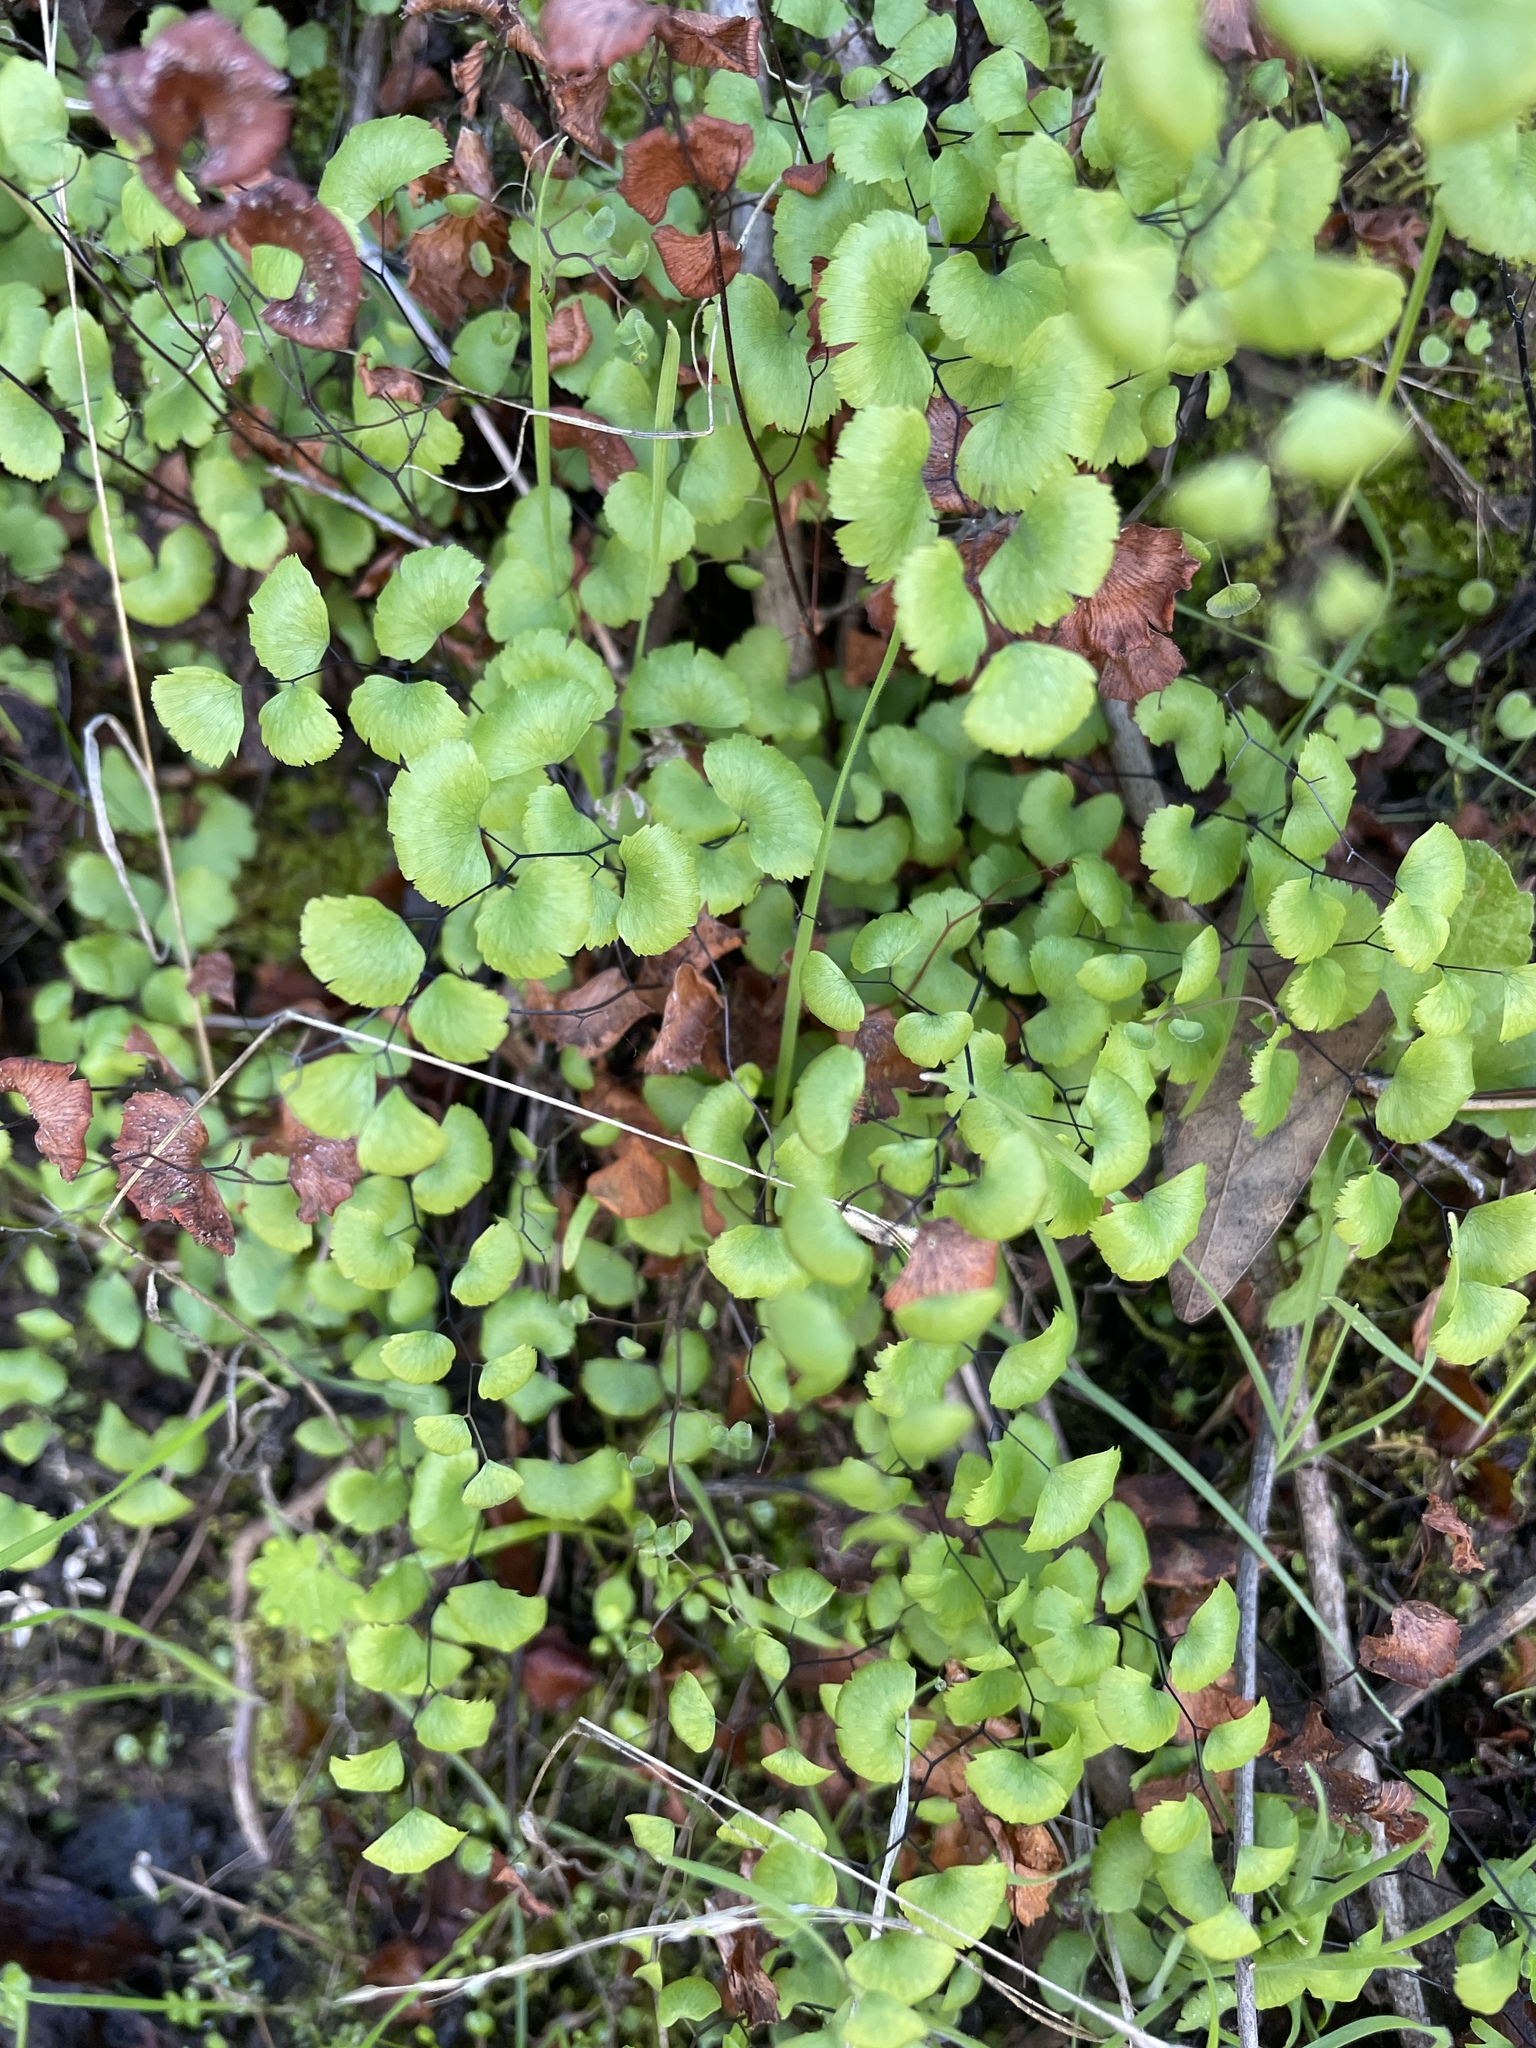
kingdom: Plantae
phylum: Tracheophyta
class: Polypodiopsida
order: Polypodiales
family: Pteridaceae
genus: Adiantum
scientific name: Adiantum jordanii
